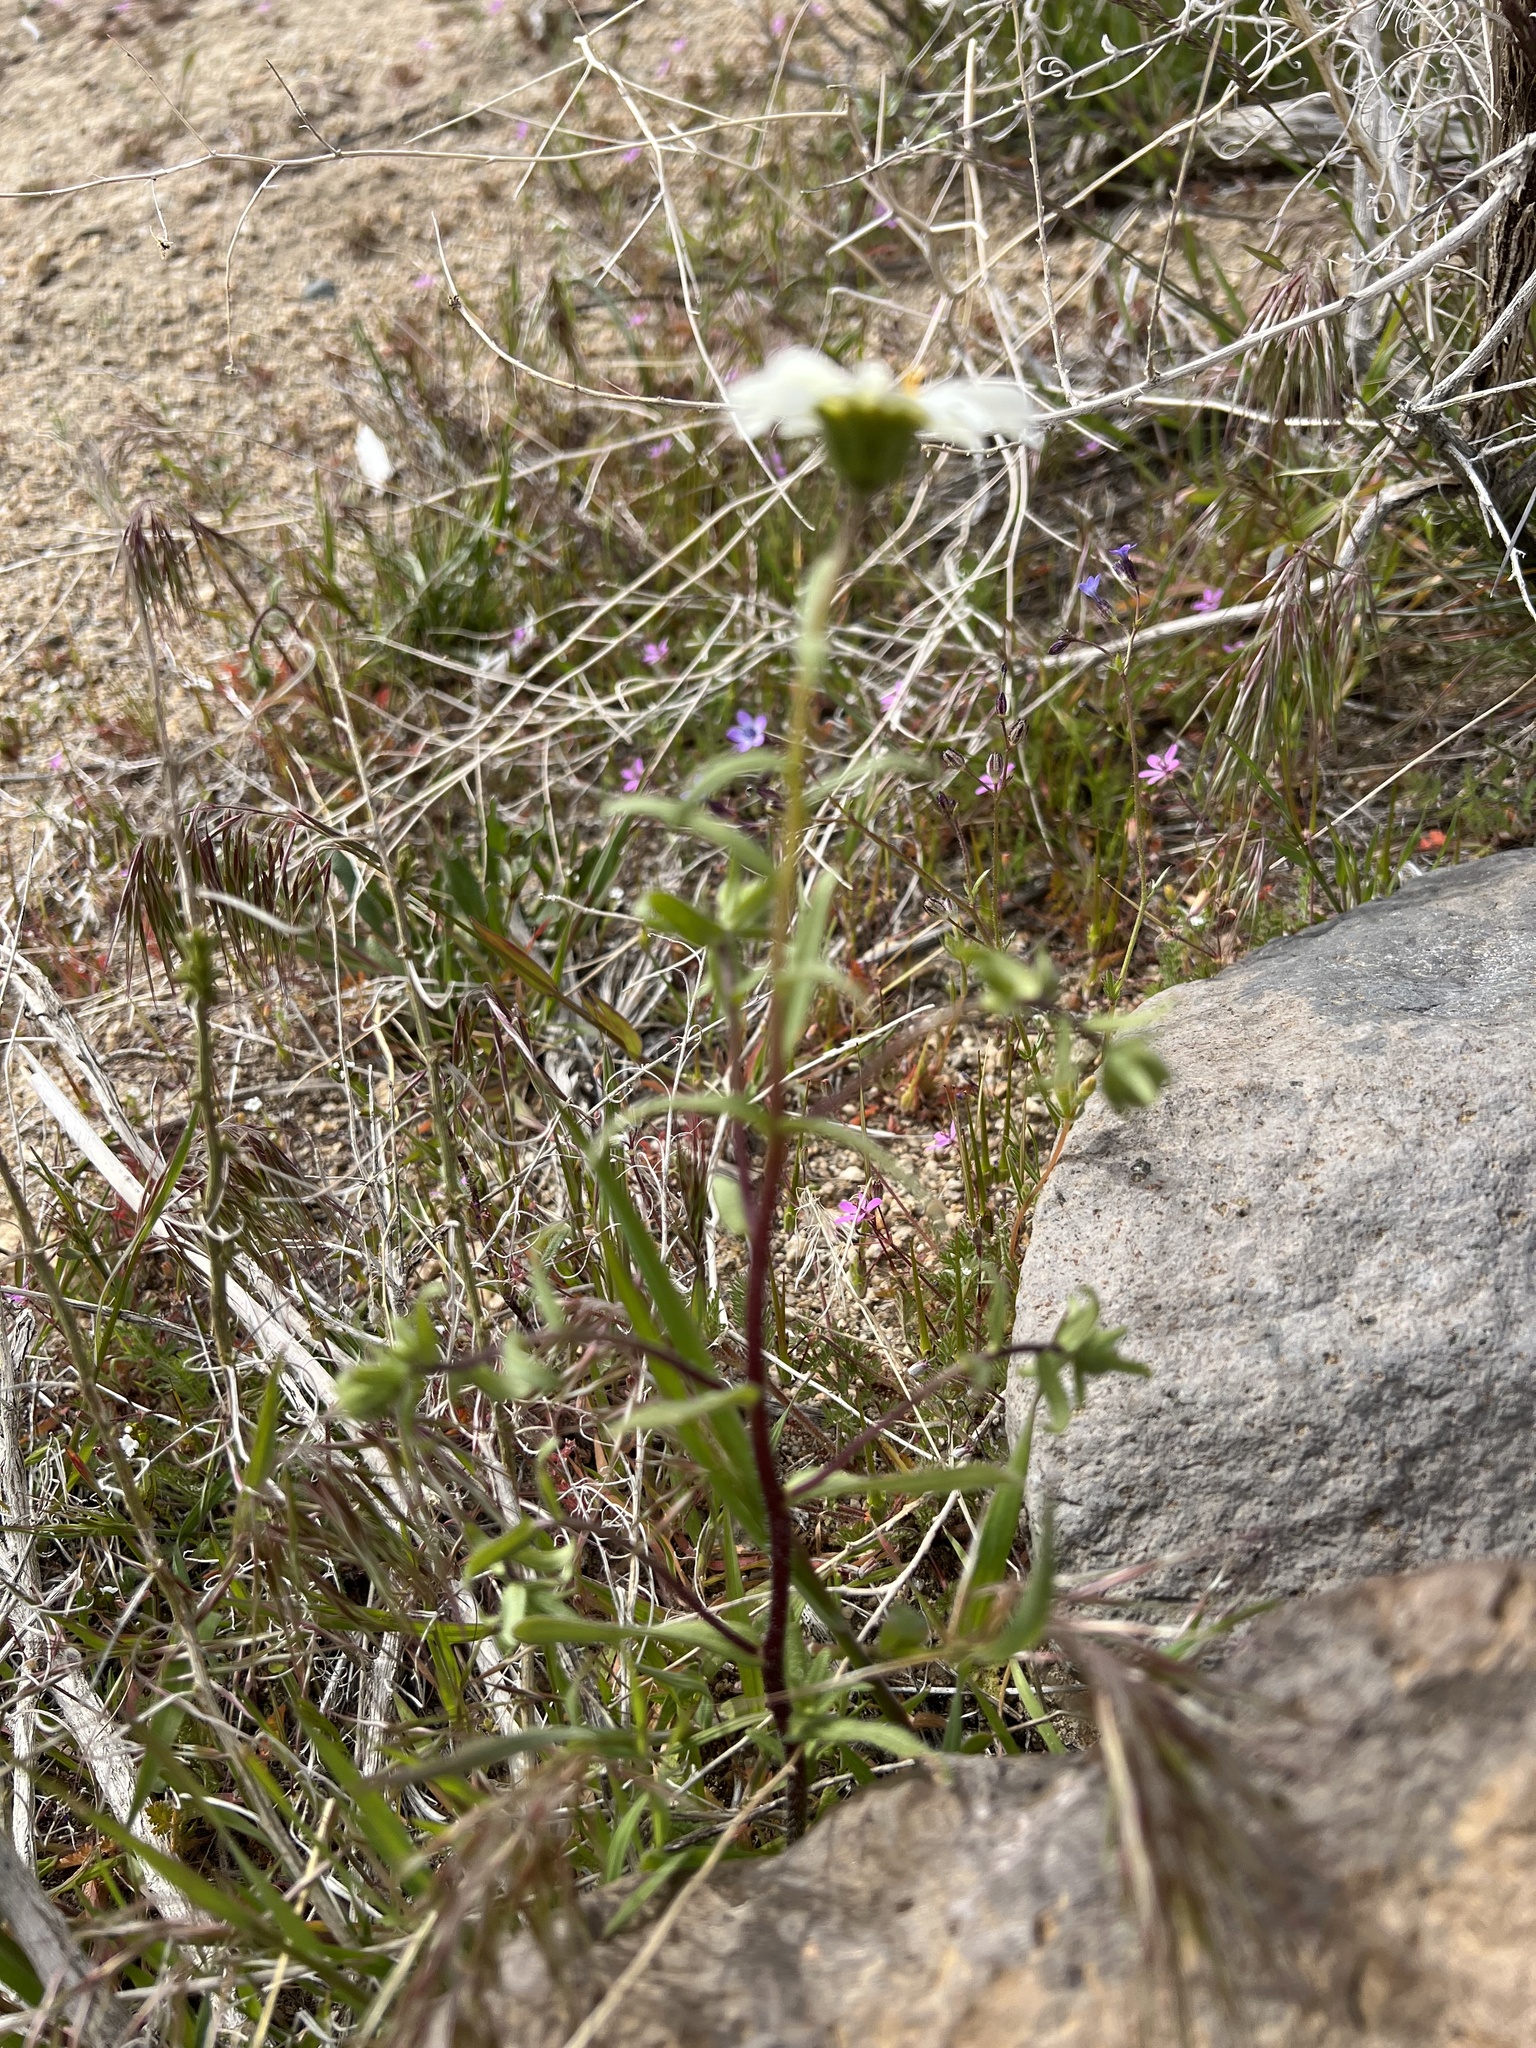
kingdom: Plantae
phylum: Tracheophyta
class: Magnoliopsida
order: Asterales
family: Asteraceae
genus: Layia
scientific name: Layia glandulosa
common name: White layia
